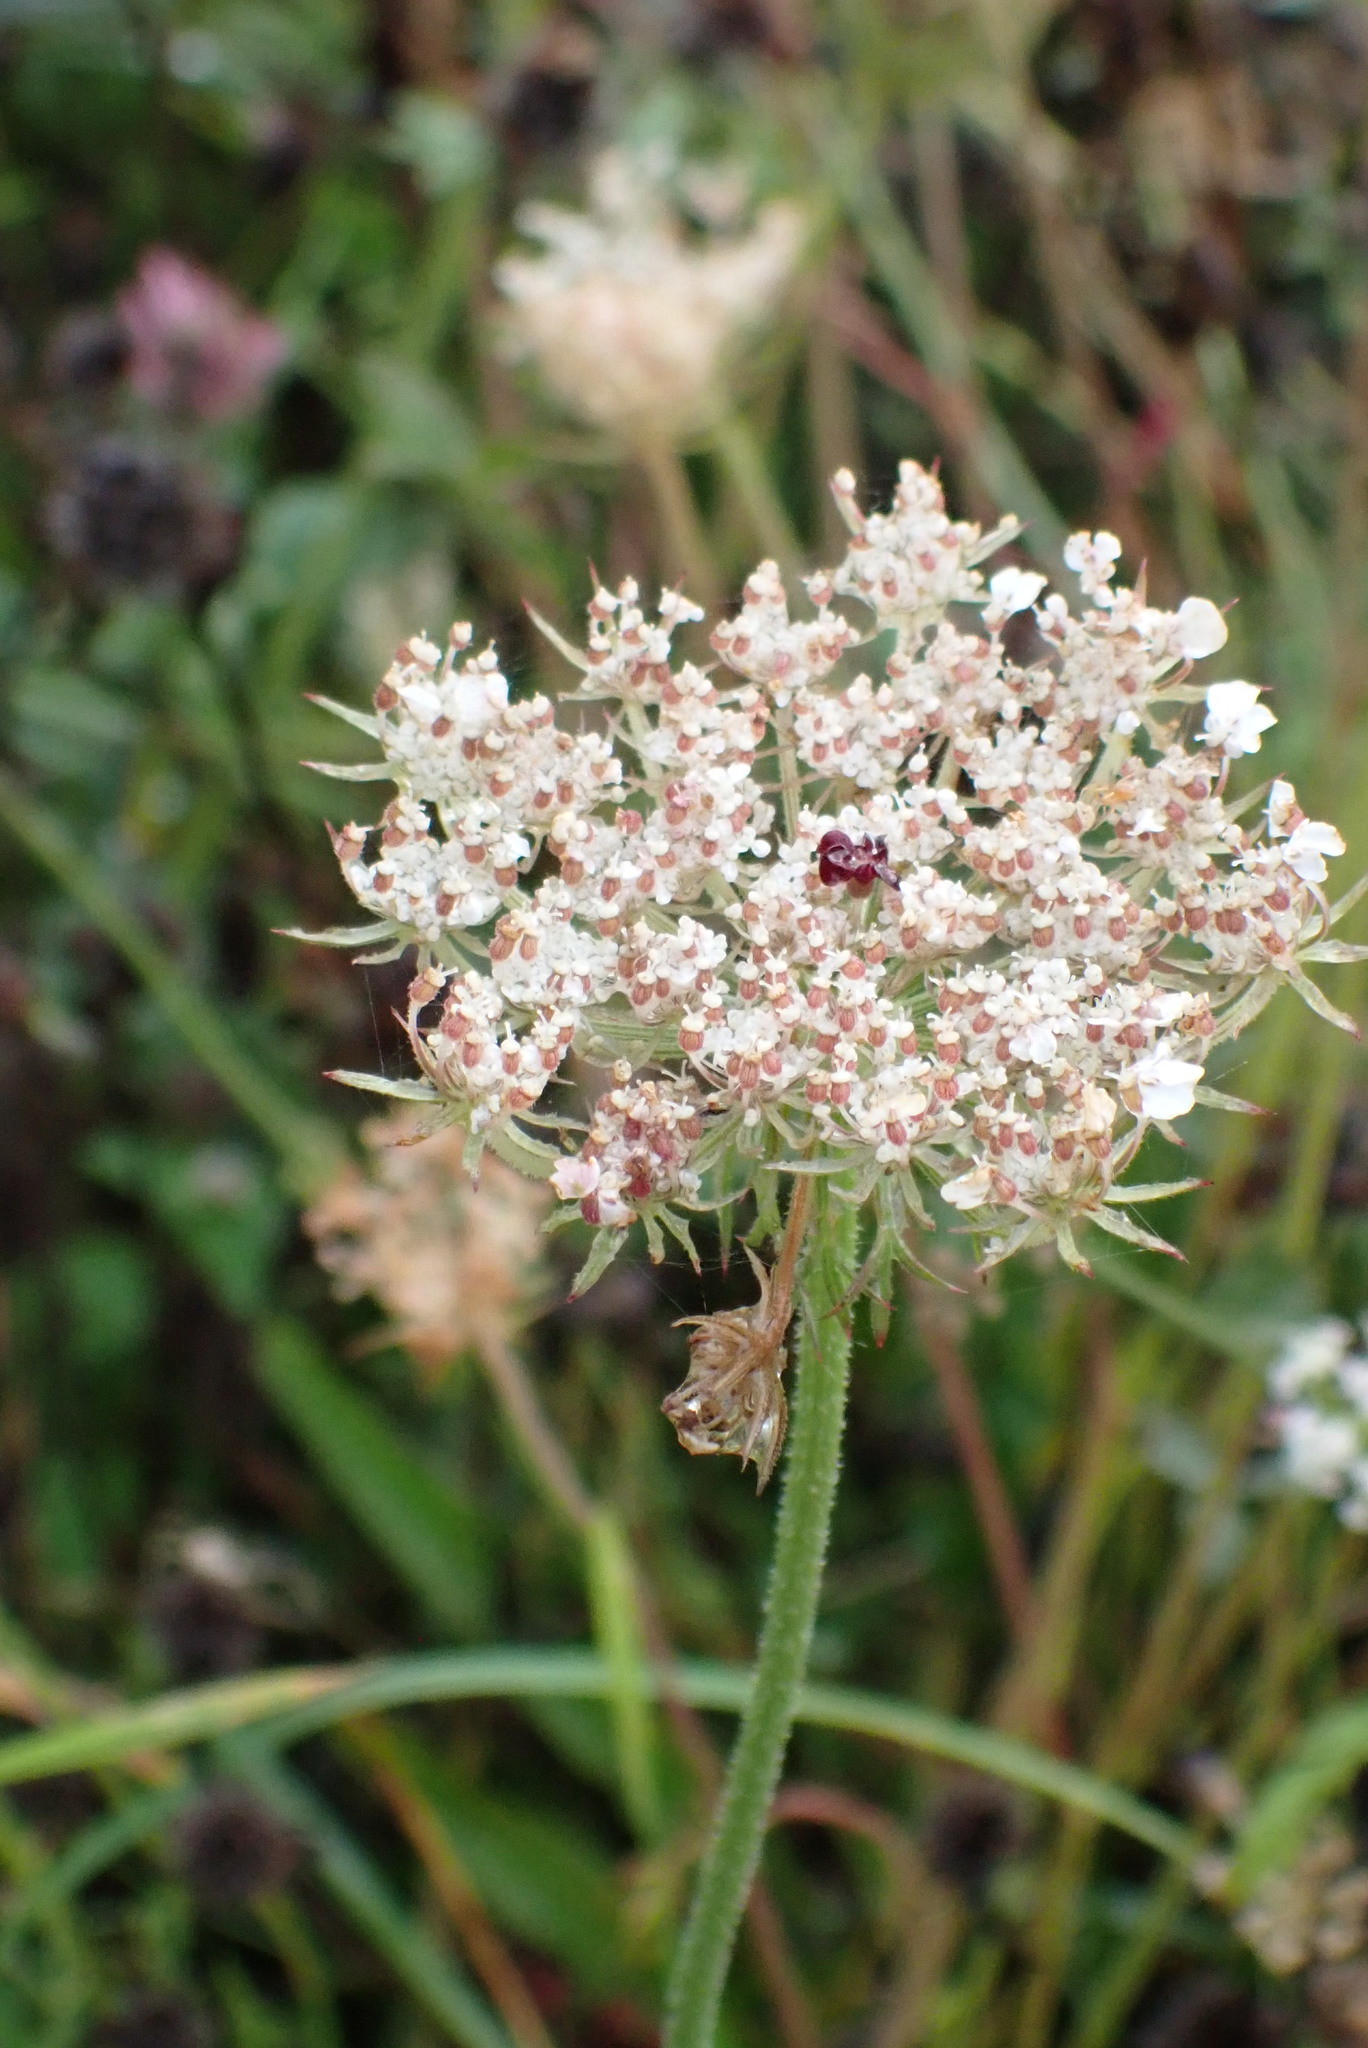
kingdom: Plantae
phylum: Tracheophyta
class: Magnoliopsida
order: Apiales
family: Apiaceae
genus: Daucus
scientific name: Daucus carota
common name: Wild carrot
